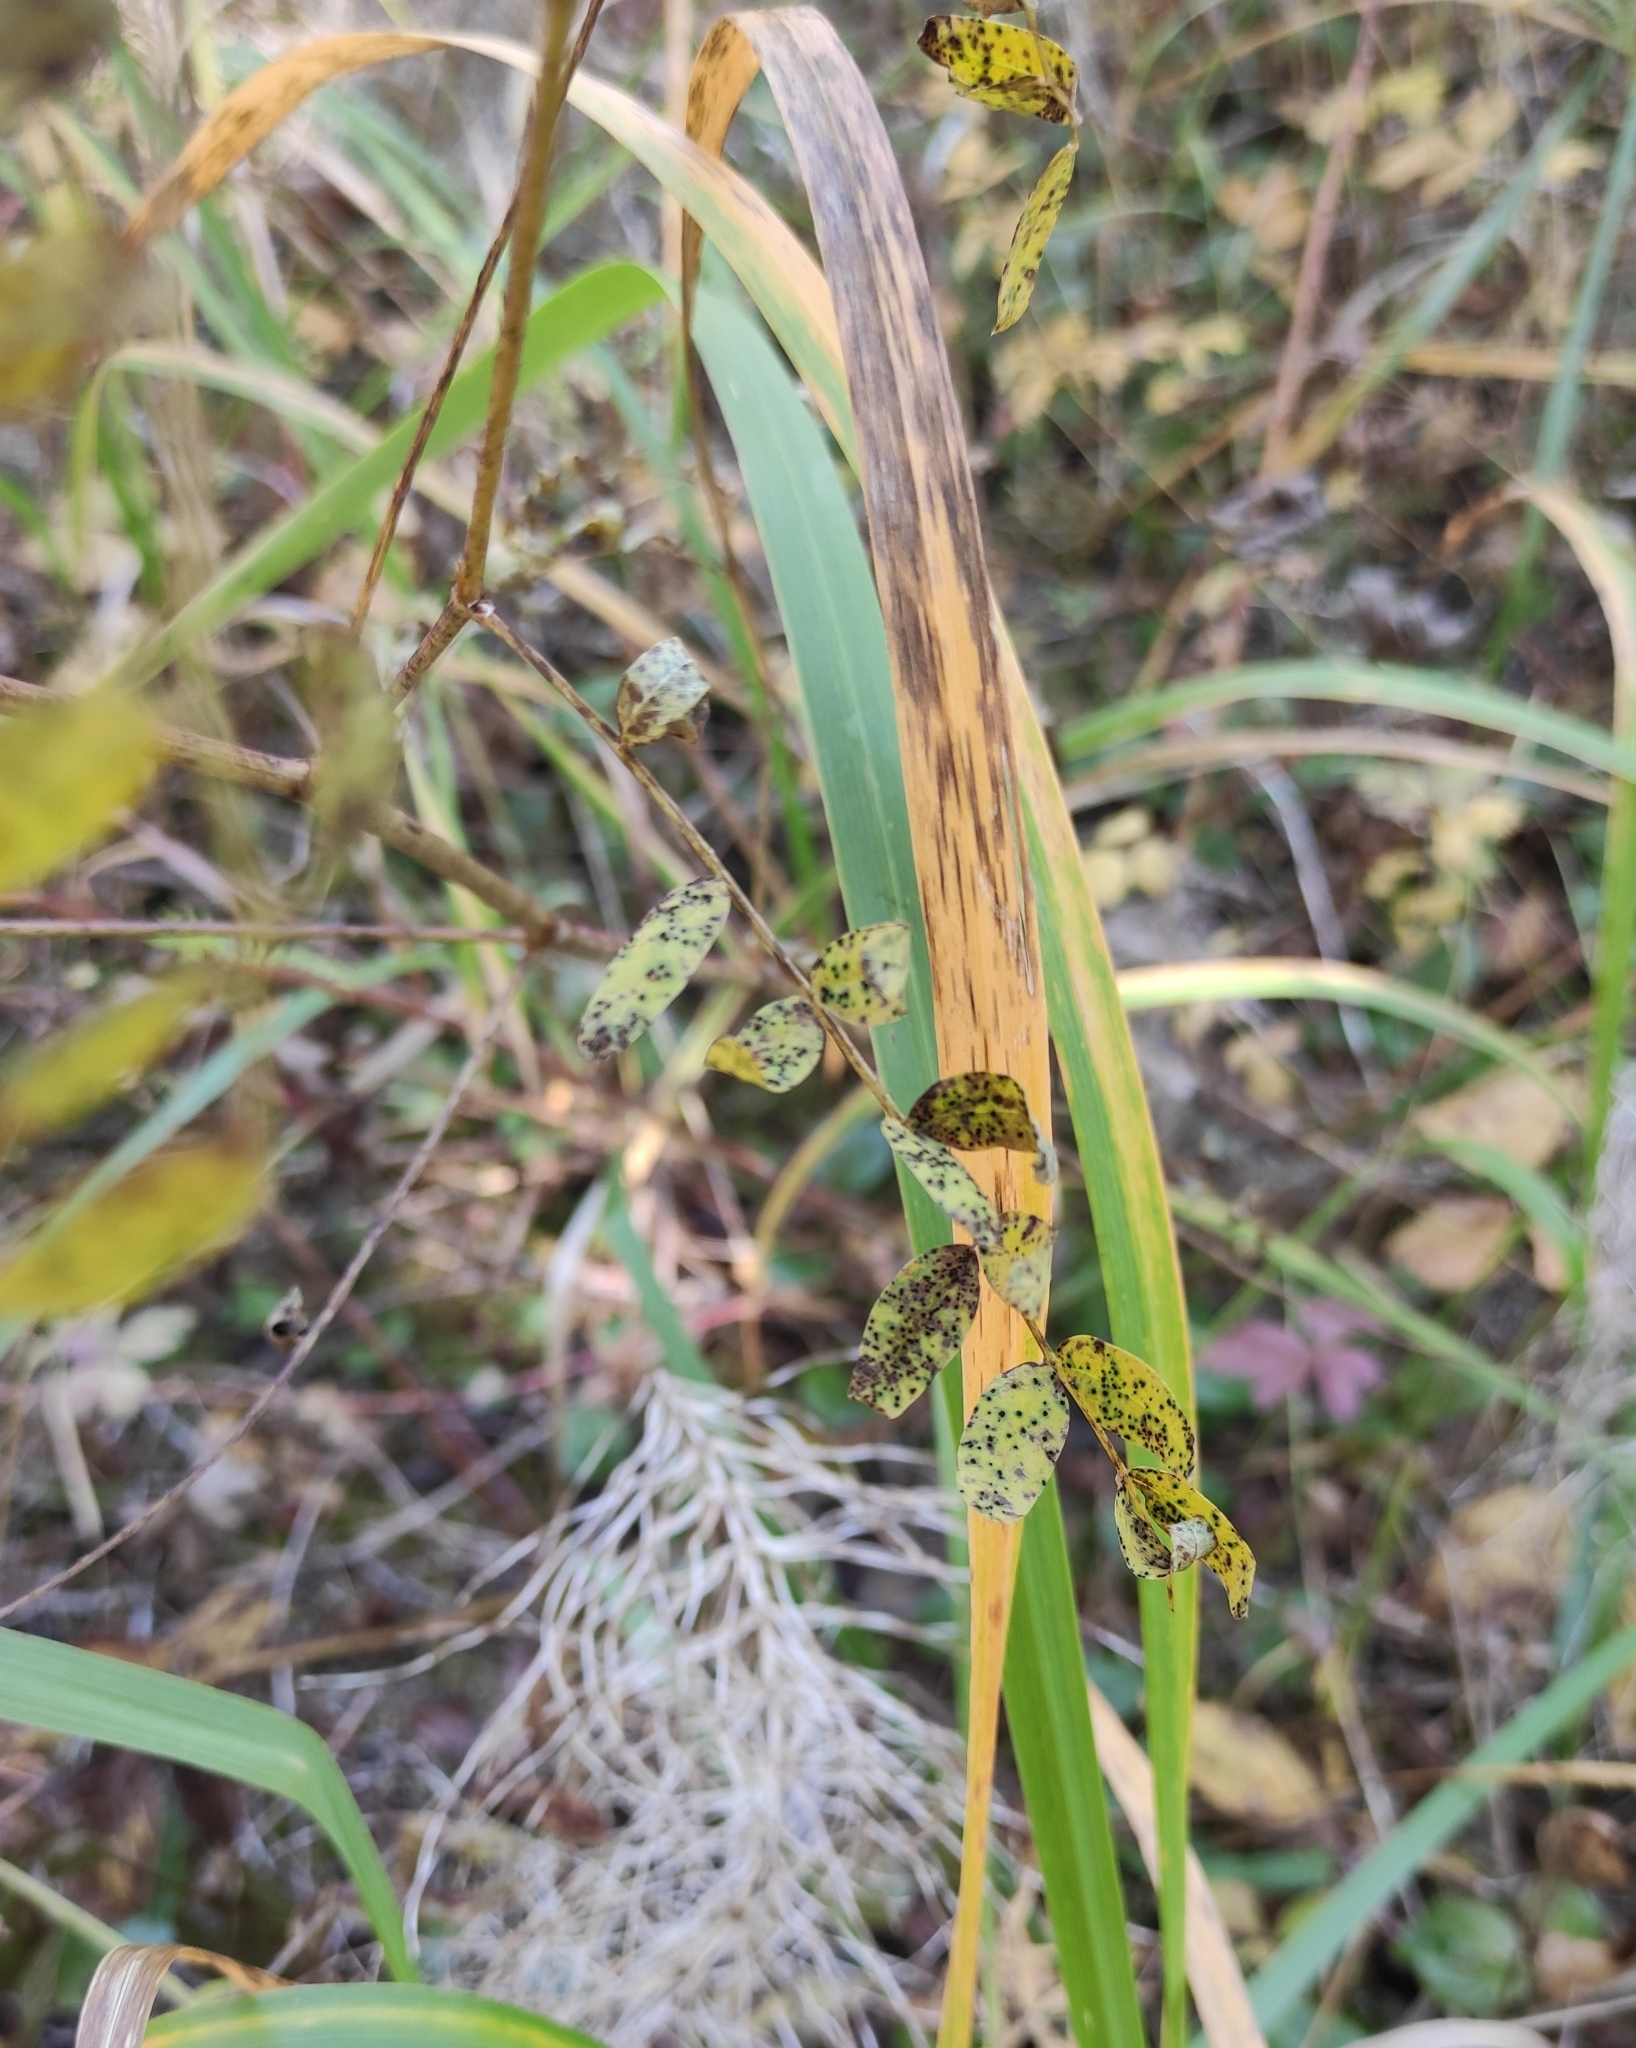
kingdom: Plantae
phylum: Tracheophyta
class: Magnoliopsida
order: Fabales
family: Fabaceae
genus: Hedysarum
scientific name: Hedysarum alpinum
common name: Alpine sweet-vetch
